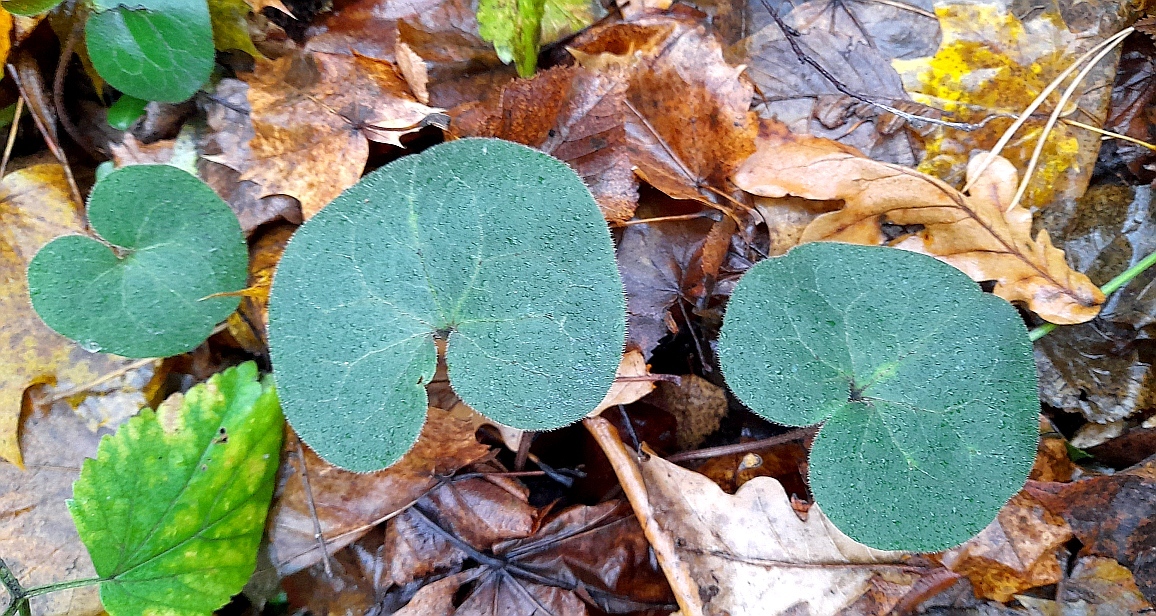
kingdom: Plantae
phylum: Tracheophyta
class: Magnoliopsida
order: Piperales
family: Aristolochiaceae
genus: Asarum
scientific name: Asarum europaeum
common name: Asarabacca
